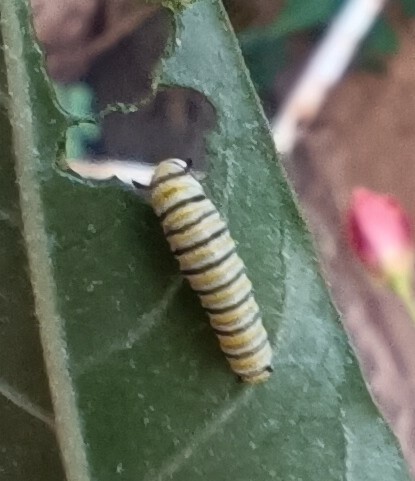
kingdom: Animalia
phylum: Arthropoda
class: Insecta
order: Lepidoptera
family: Nymphalidae
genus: Danaus
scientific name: Danaus plexippus
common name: Monarch
